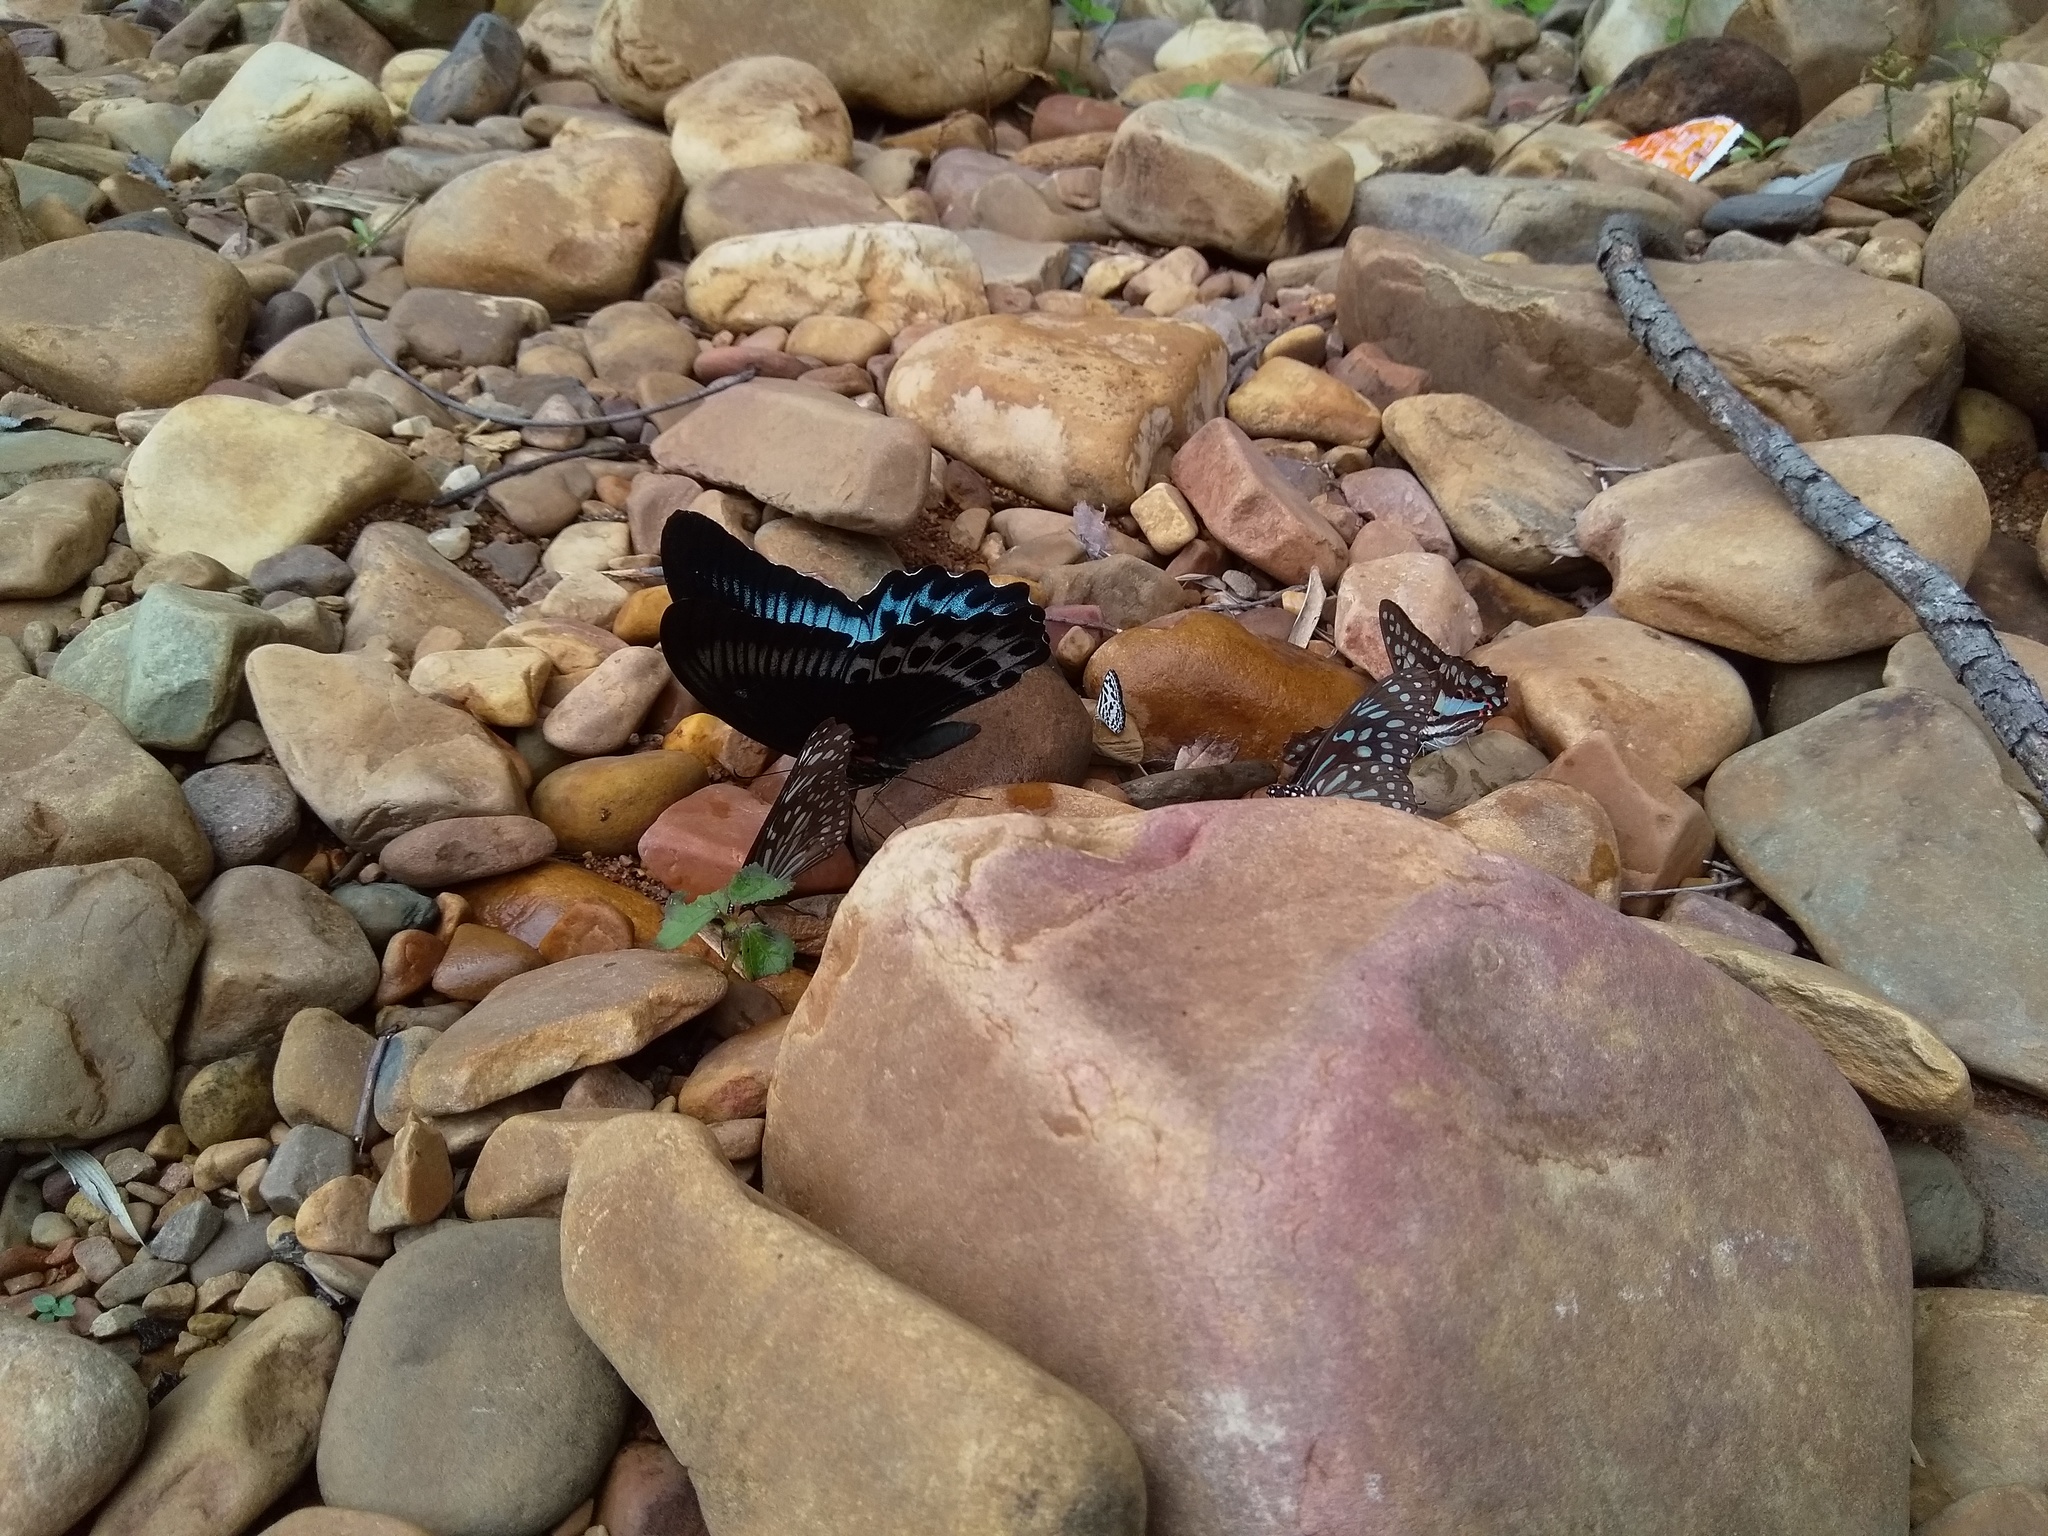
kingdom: Animalia
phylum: Arthropoda
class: Insecta
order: Lepidoptera
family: Papilionidae
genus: Papilio
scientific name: Papilio memnon
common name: Great mormon
